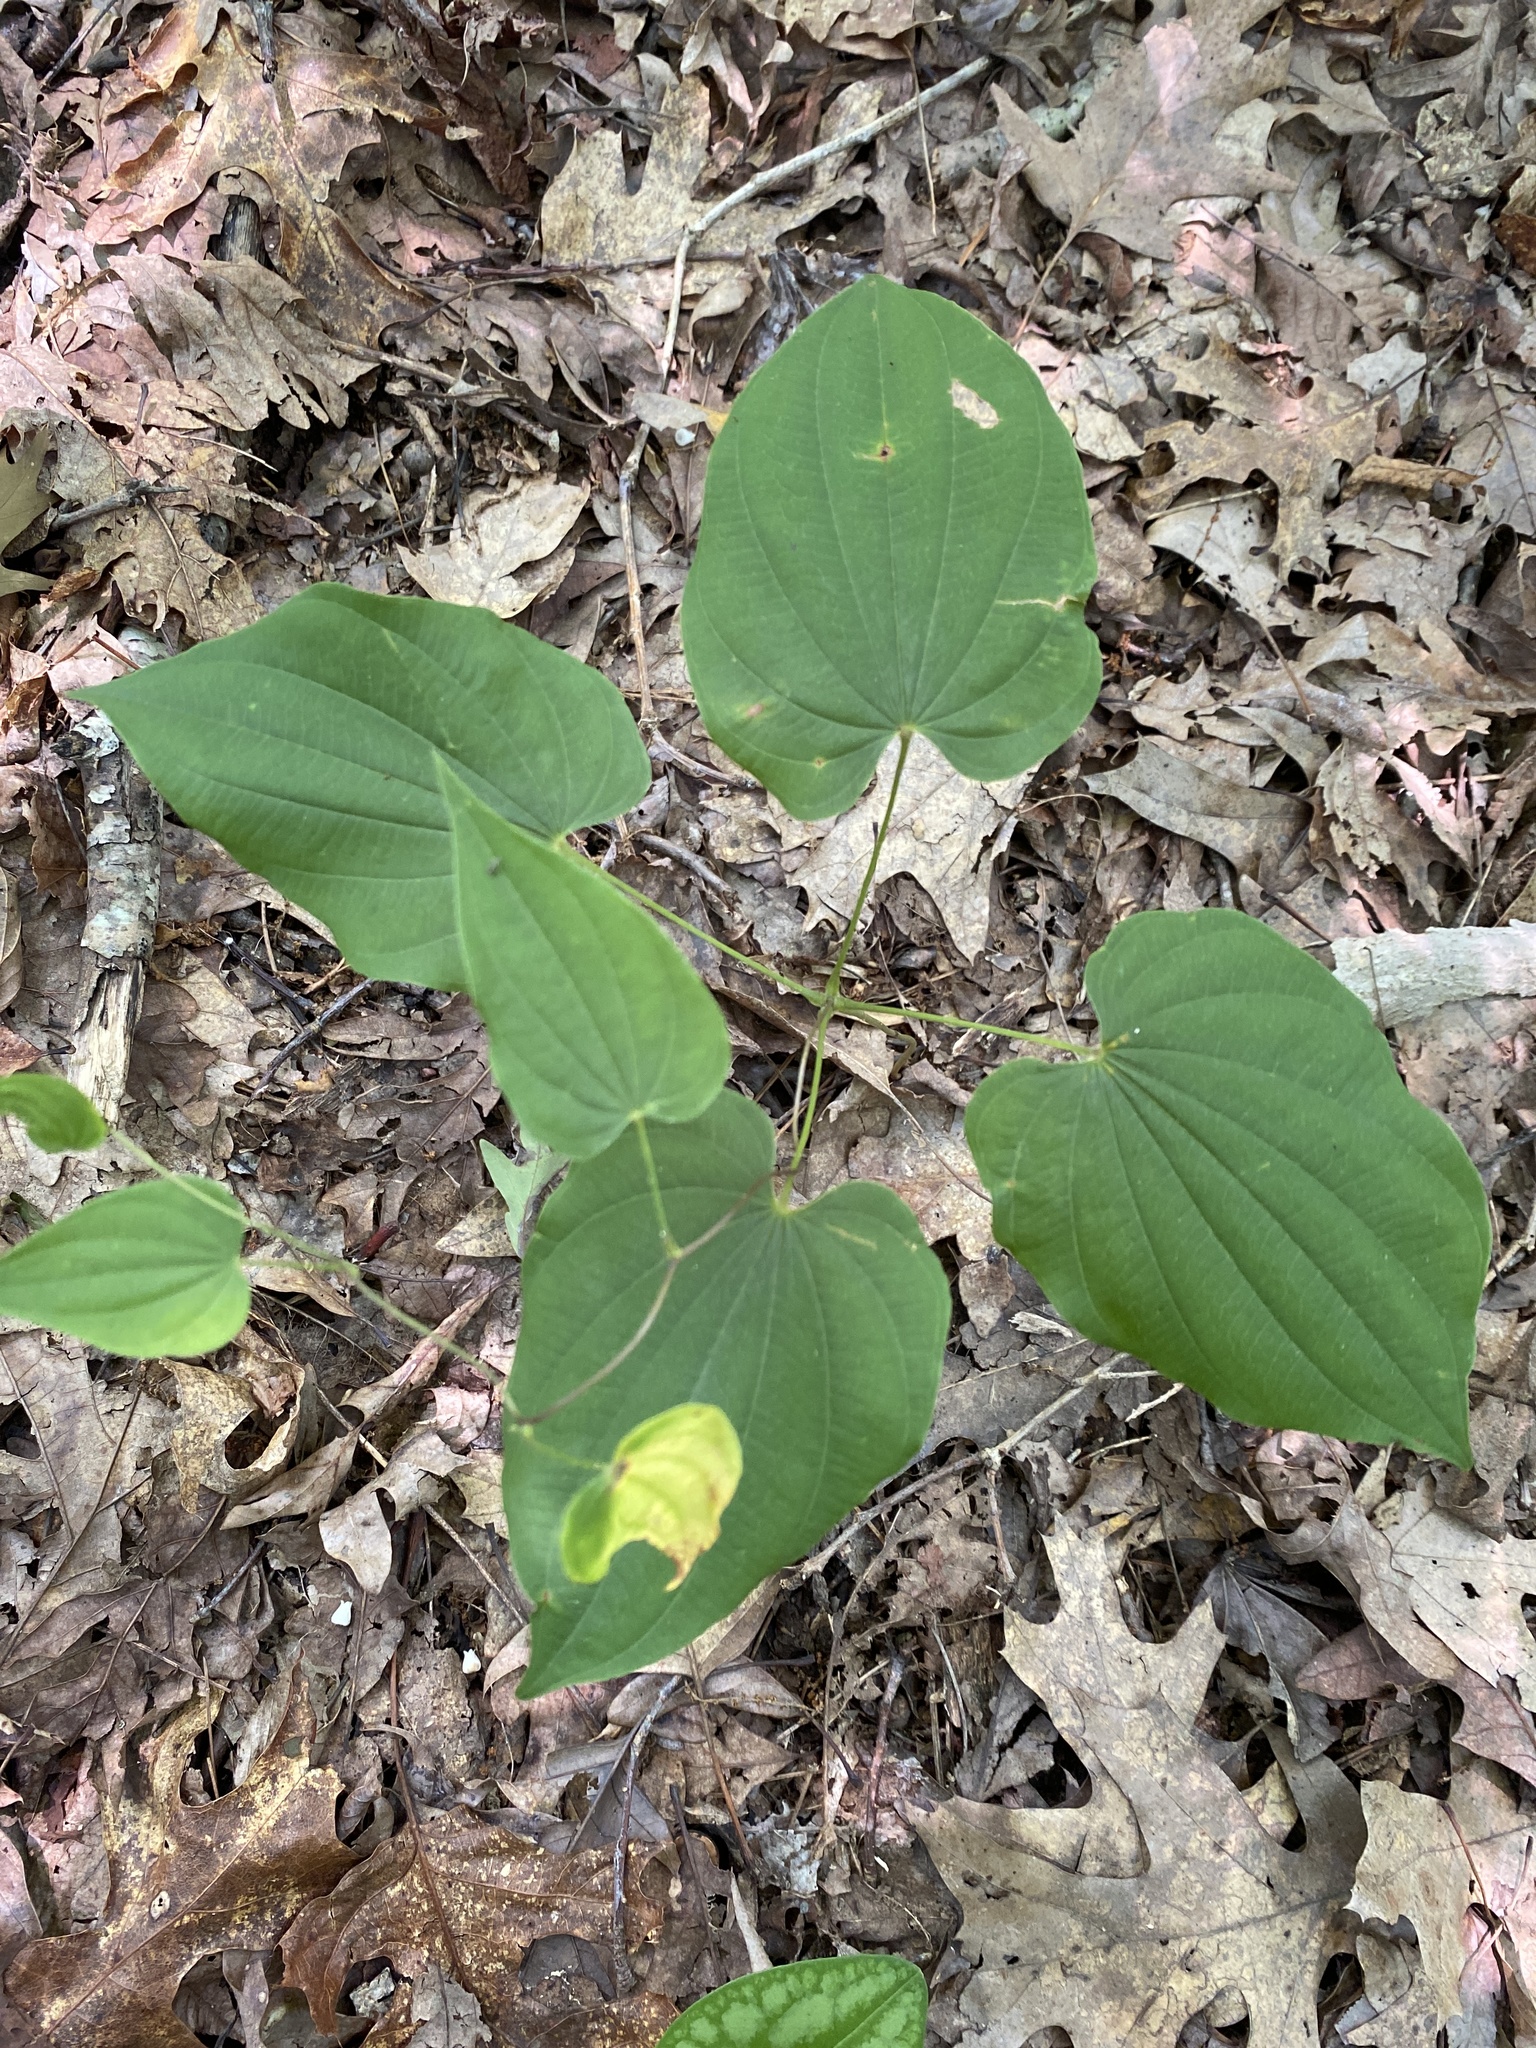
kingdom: Plantae
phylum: Tracheophyta
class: Liliopsida
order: Dioscoreales
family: Dioscoreaceae
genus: Dioscorea
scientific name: Dioscorea villosa
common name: Wild yam
